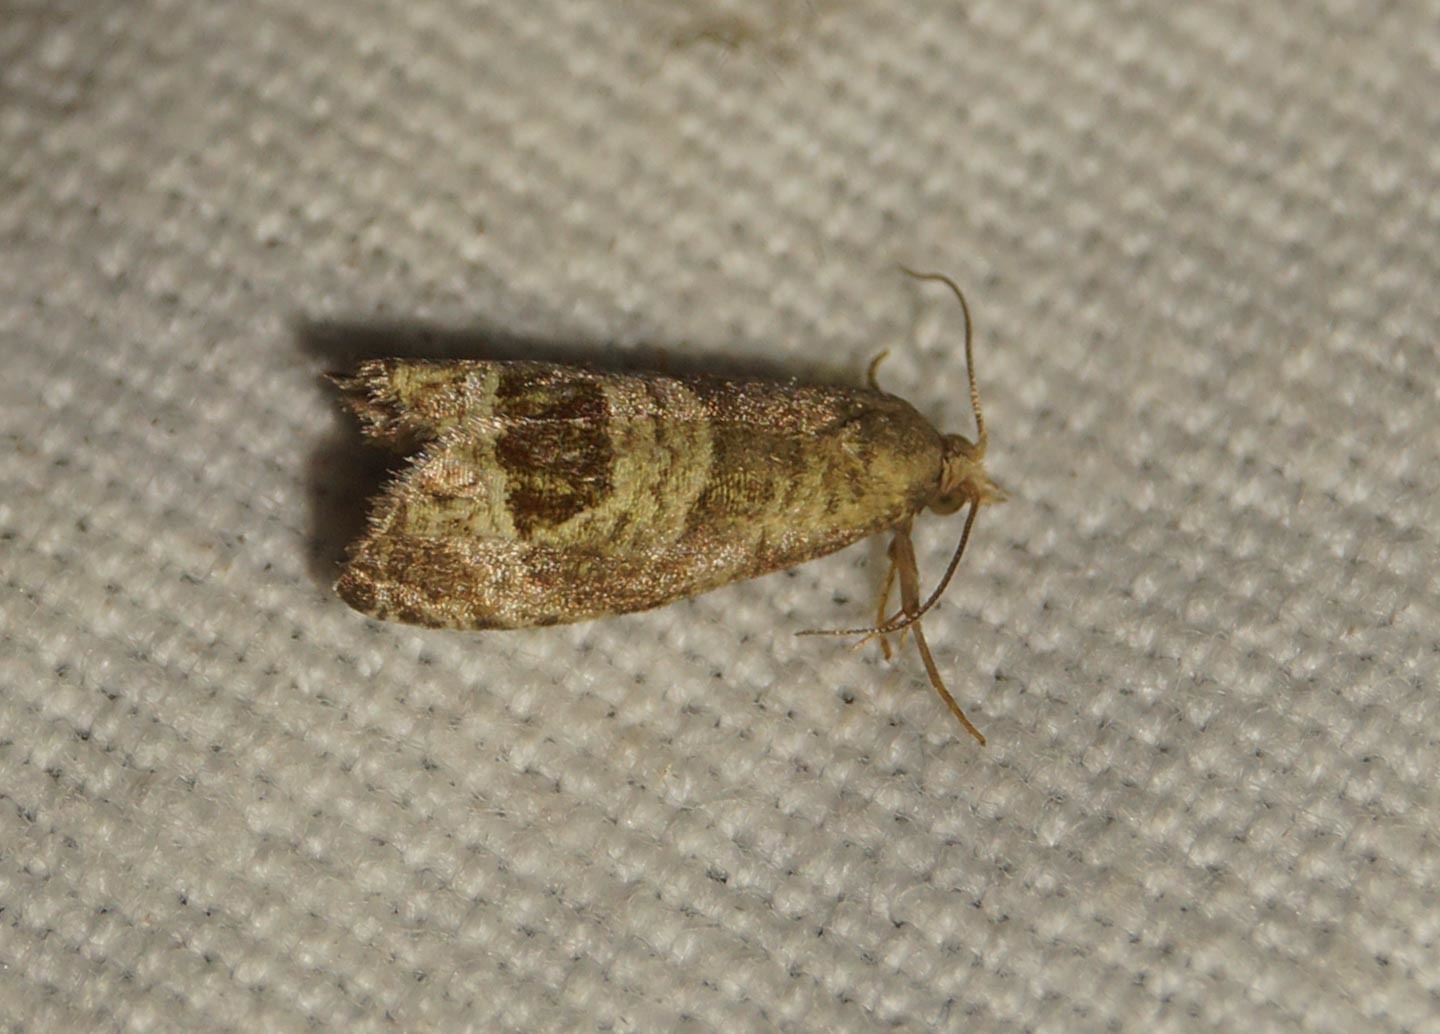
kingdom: Animalia
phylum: Arthropoda
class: Insecta
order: Lepidoptera
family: Tortricidae
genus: Notocelia
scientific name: Notocelia uddmanniana
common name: Bramble shoot moth
